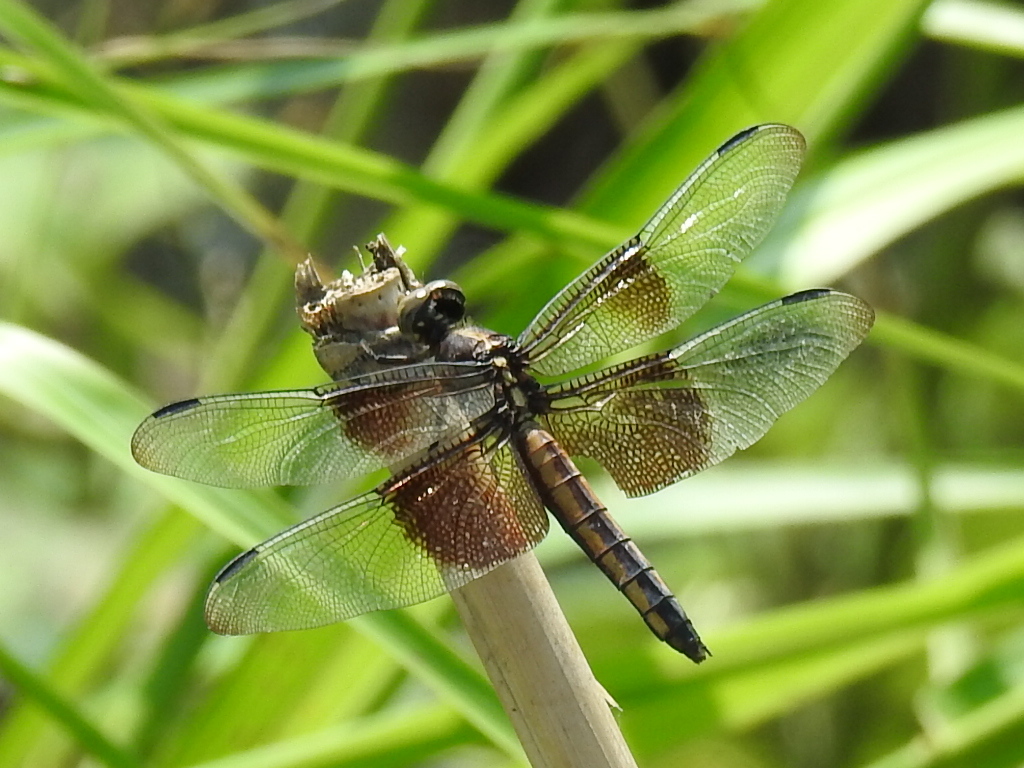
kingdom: Animalia
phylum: Arthropoda
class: Insecta
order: Odonata
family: Libellulidae
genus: Libellula
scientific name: Libellula luctuosa
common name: Widow skimmer
